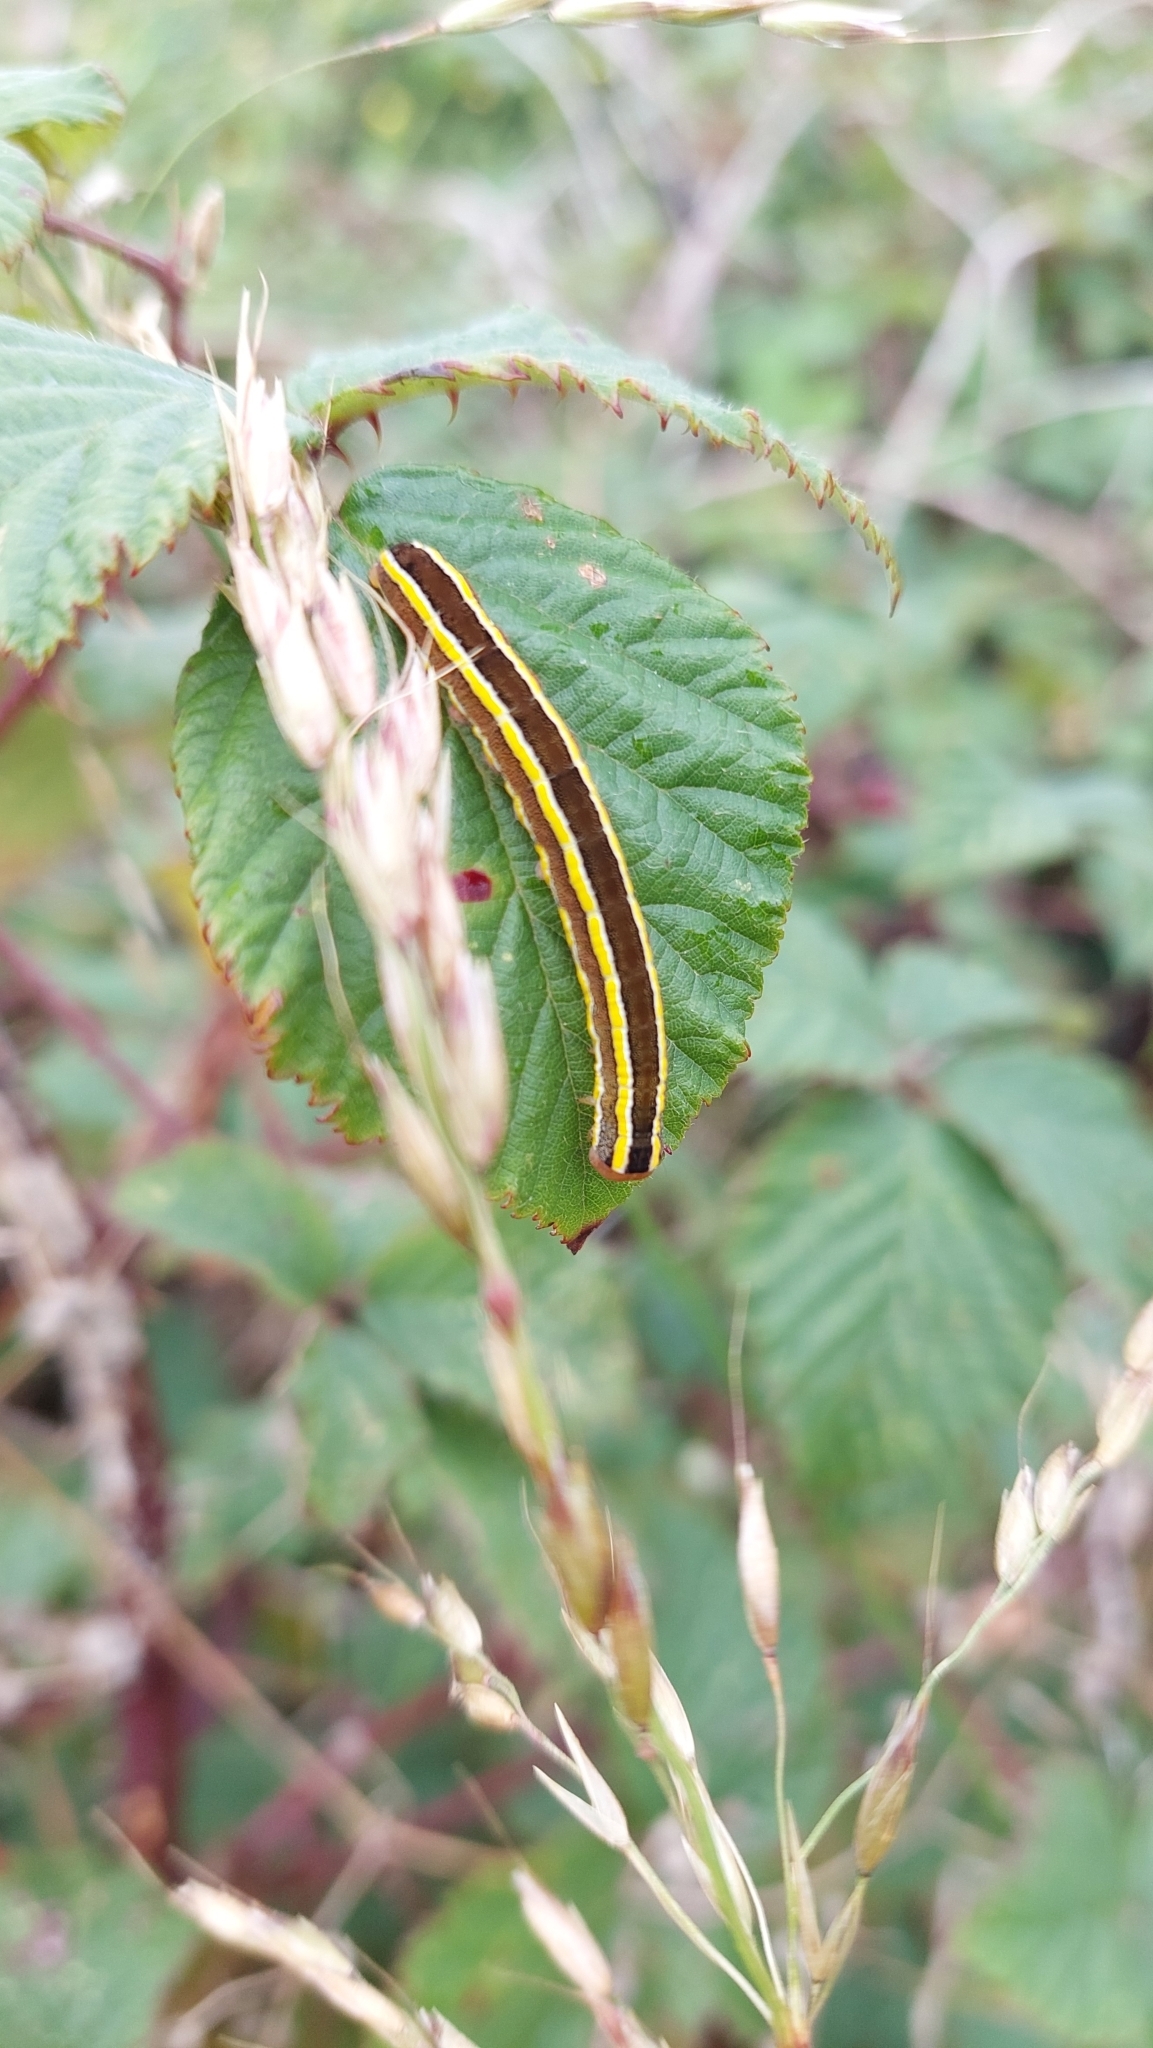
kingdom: Animalia
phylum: Arthropoda
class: Insecta
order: Lepidoptera
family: Noctuidae
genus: Ceramica
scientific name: Ceramica pisi
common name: Broom moth
